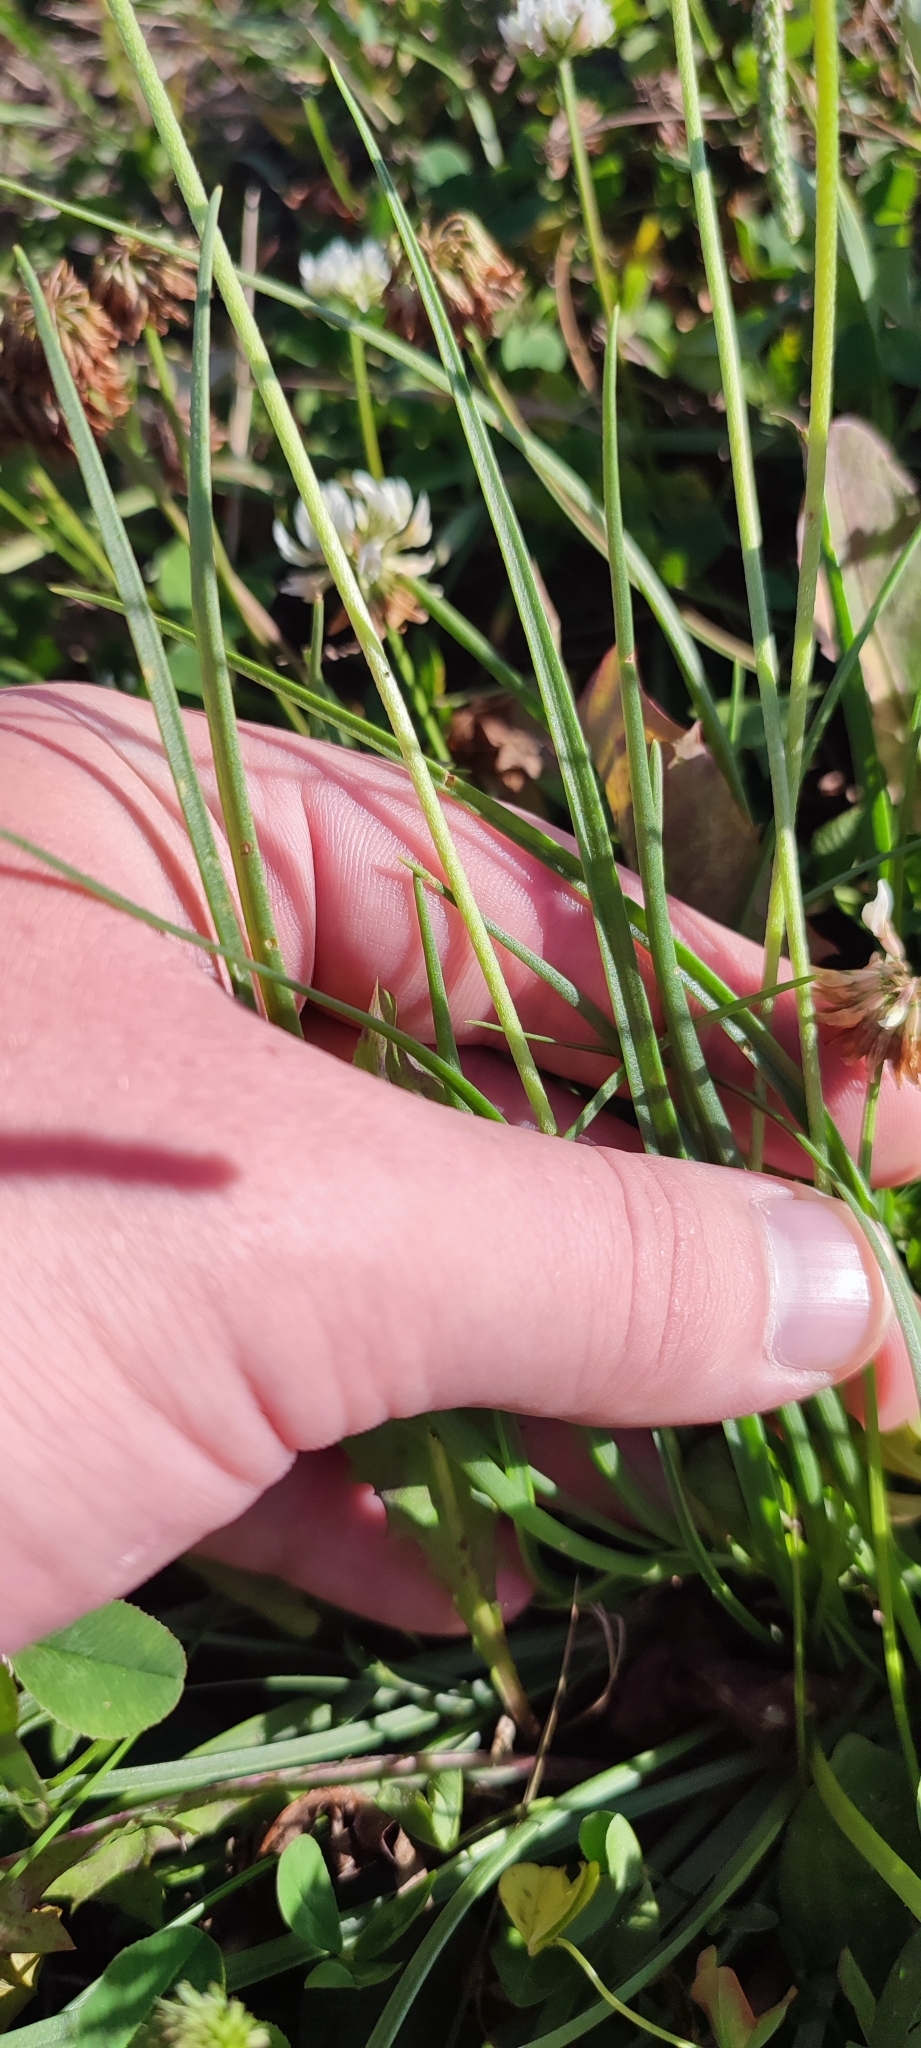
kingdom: Plantae
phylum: Tracheophyta
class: Magnoliopsida
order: Lamiales
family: Plantaginaceae
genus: Plantago
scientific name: Plantago salsa
